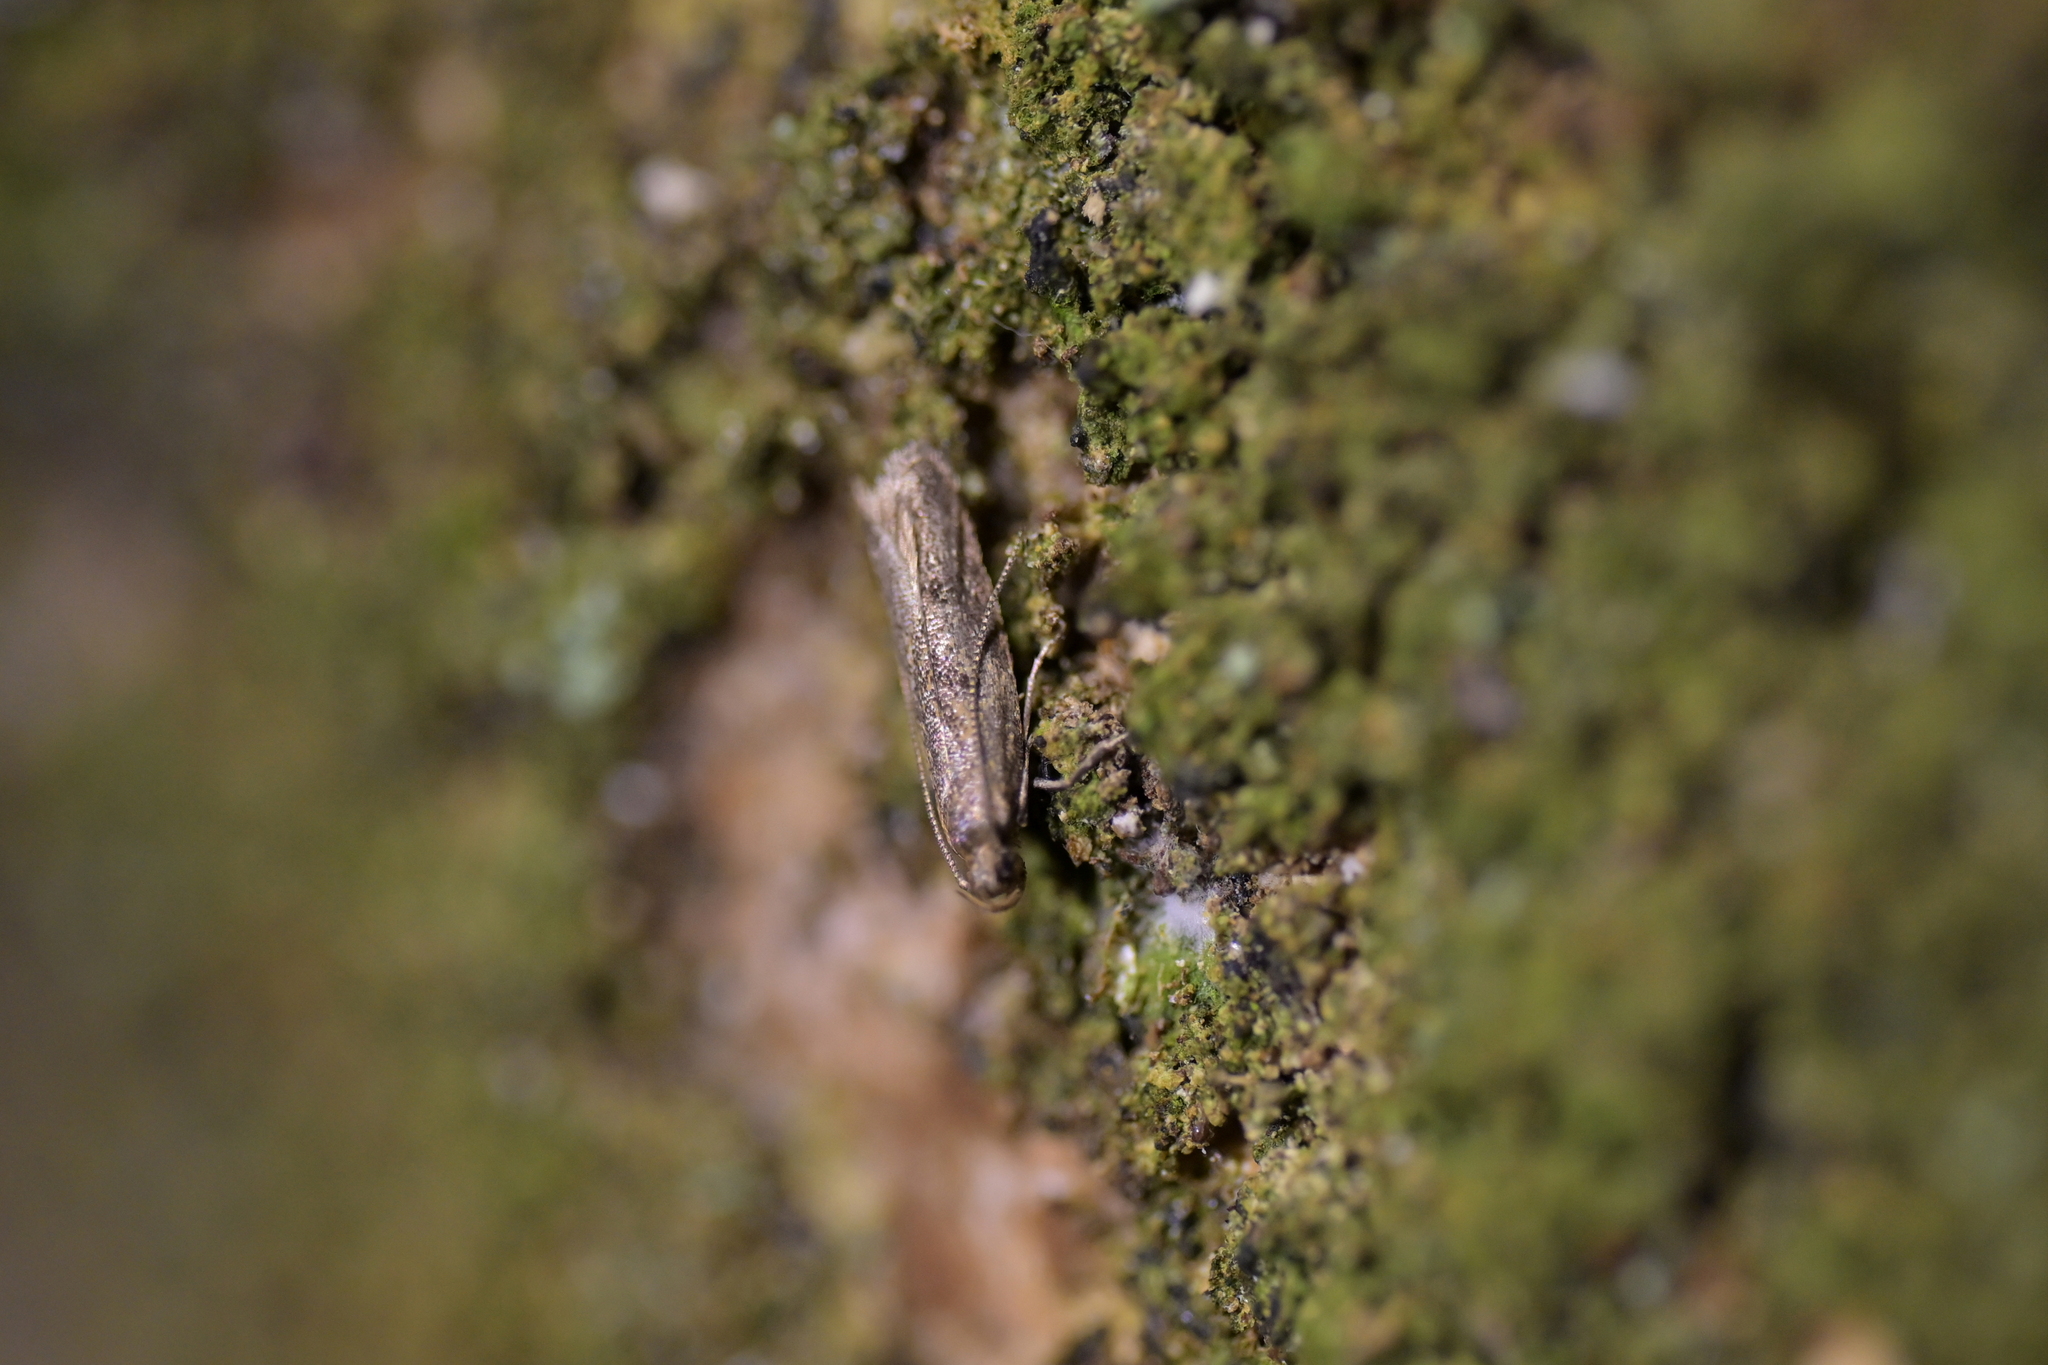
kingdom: Animalia
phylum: Arthropoda
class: Insecta
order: Lepidoptera
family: Oecophoridae
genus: Gymnobathra
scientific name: Gymnobathra tholodella
